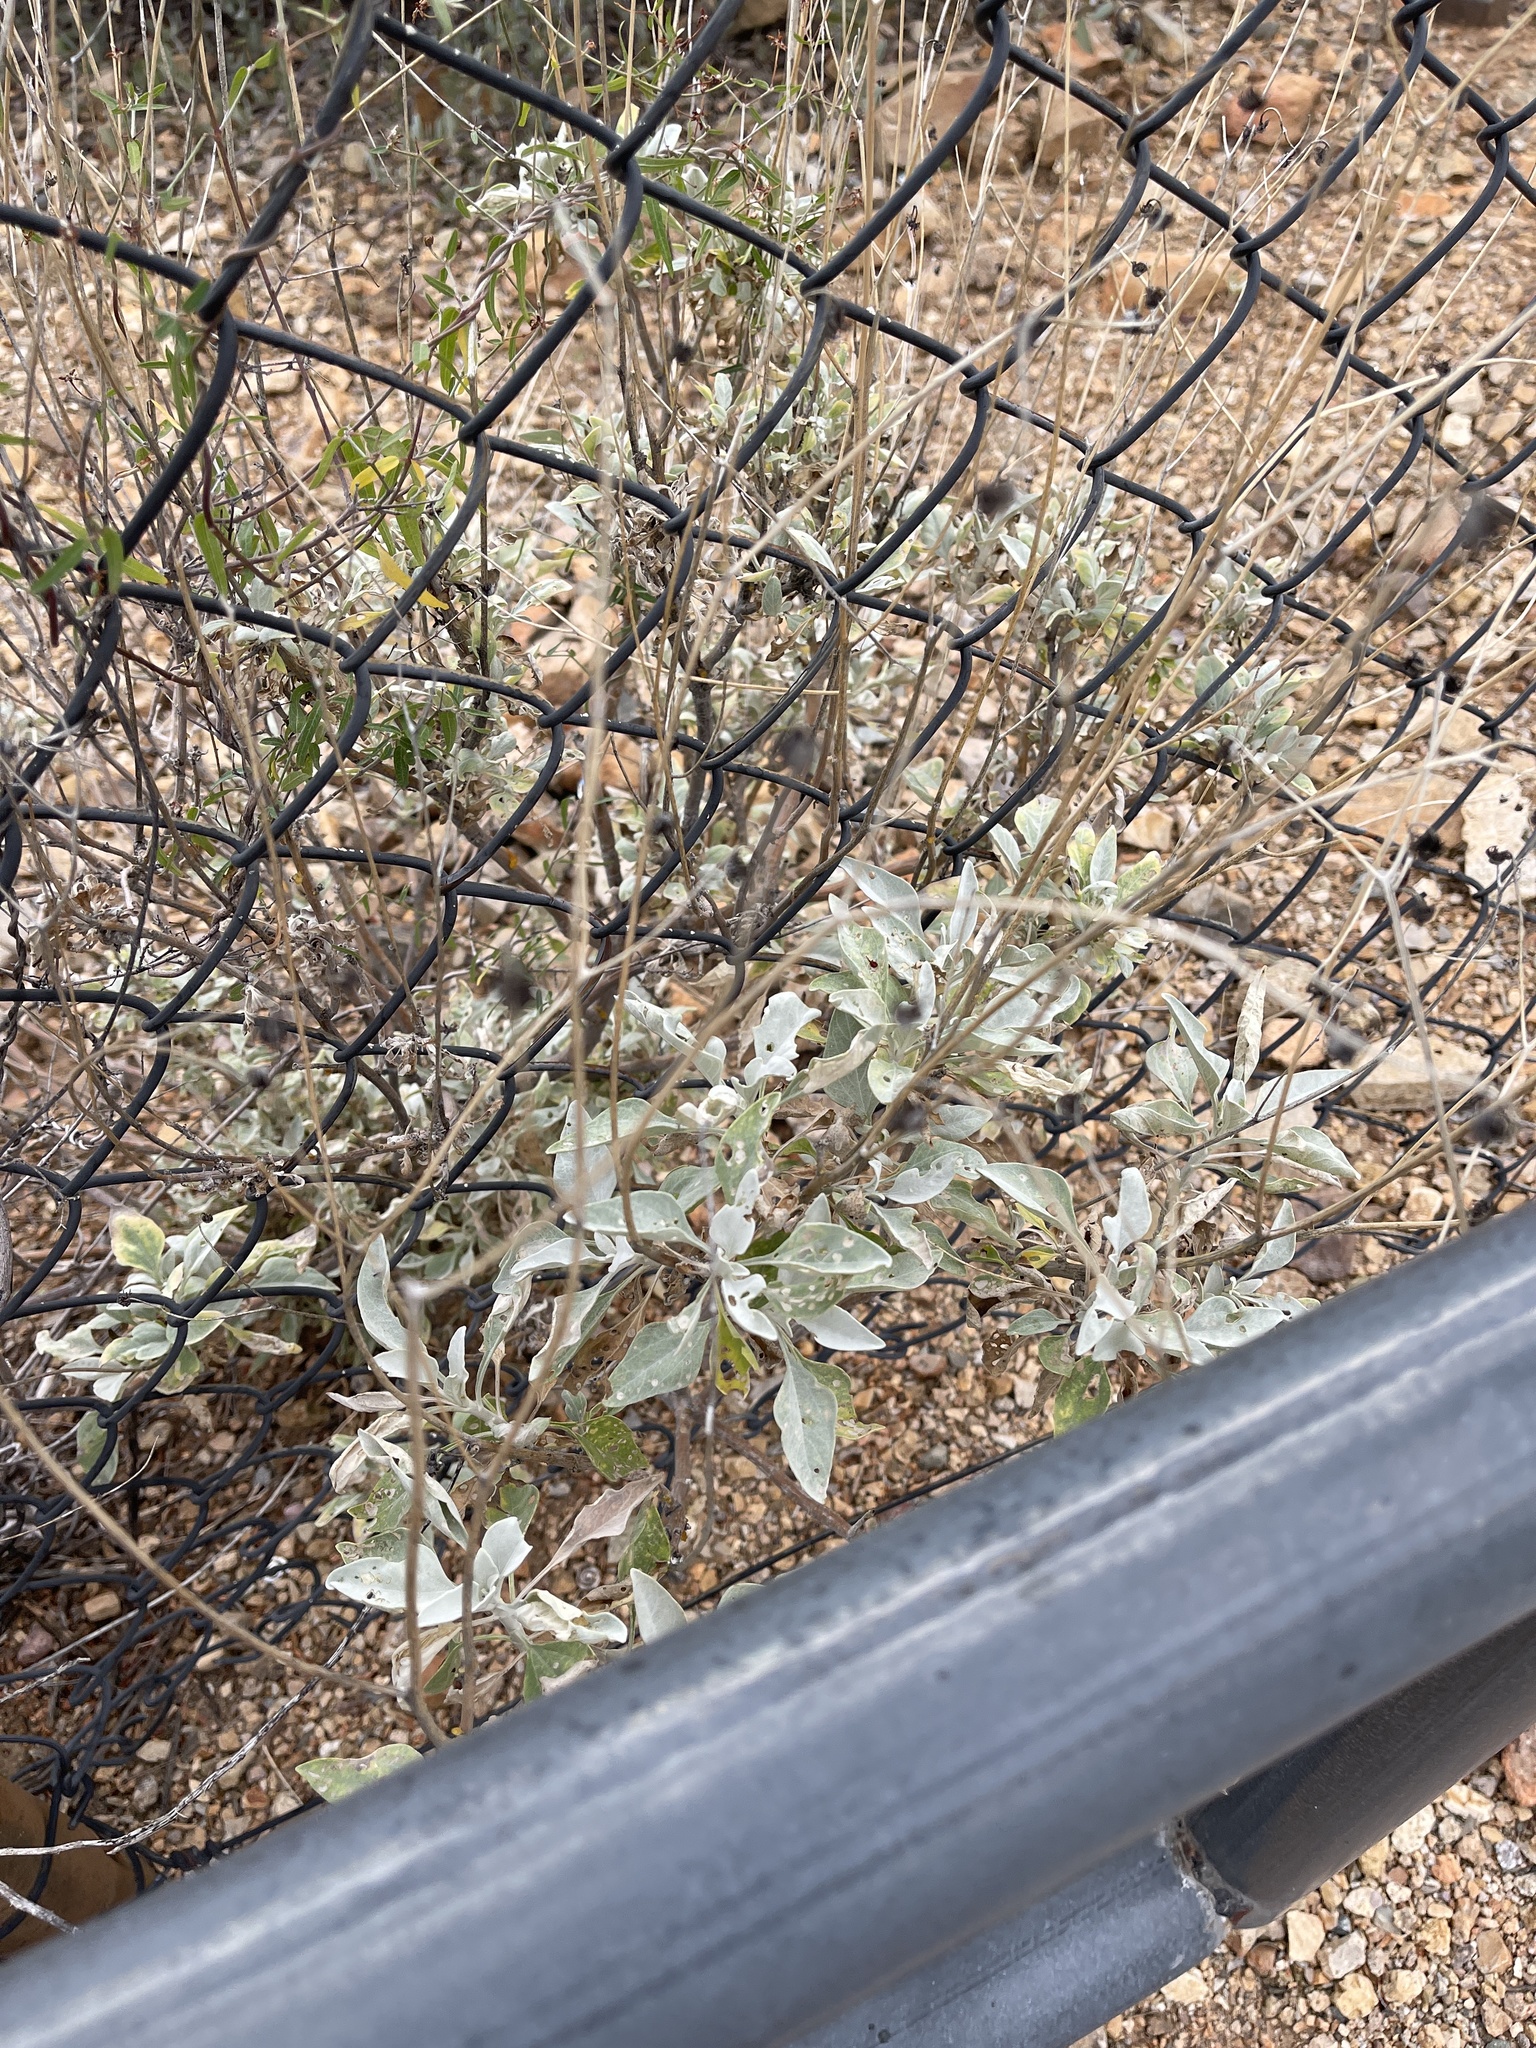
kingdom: Plantae
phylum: Tracheophyta
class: Magnoliopsida
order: Asterales
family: Asteraceae
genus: Encelia
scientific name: Encelia farinosa
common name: Brittlebush
